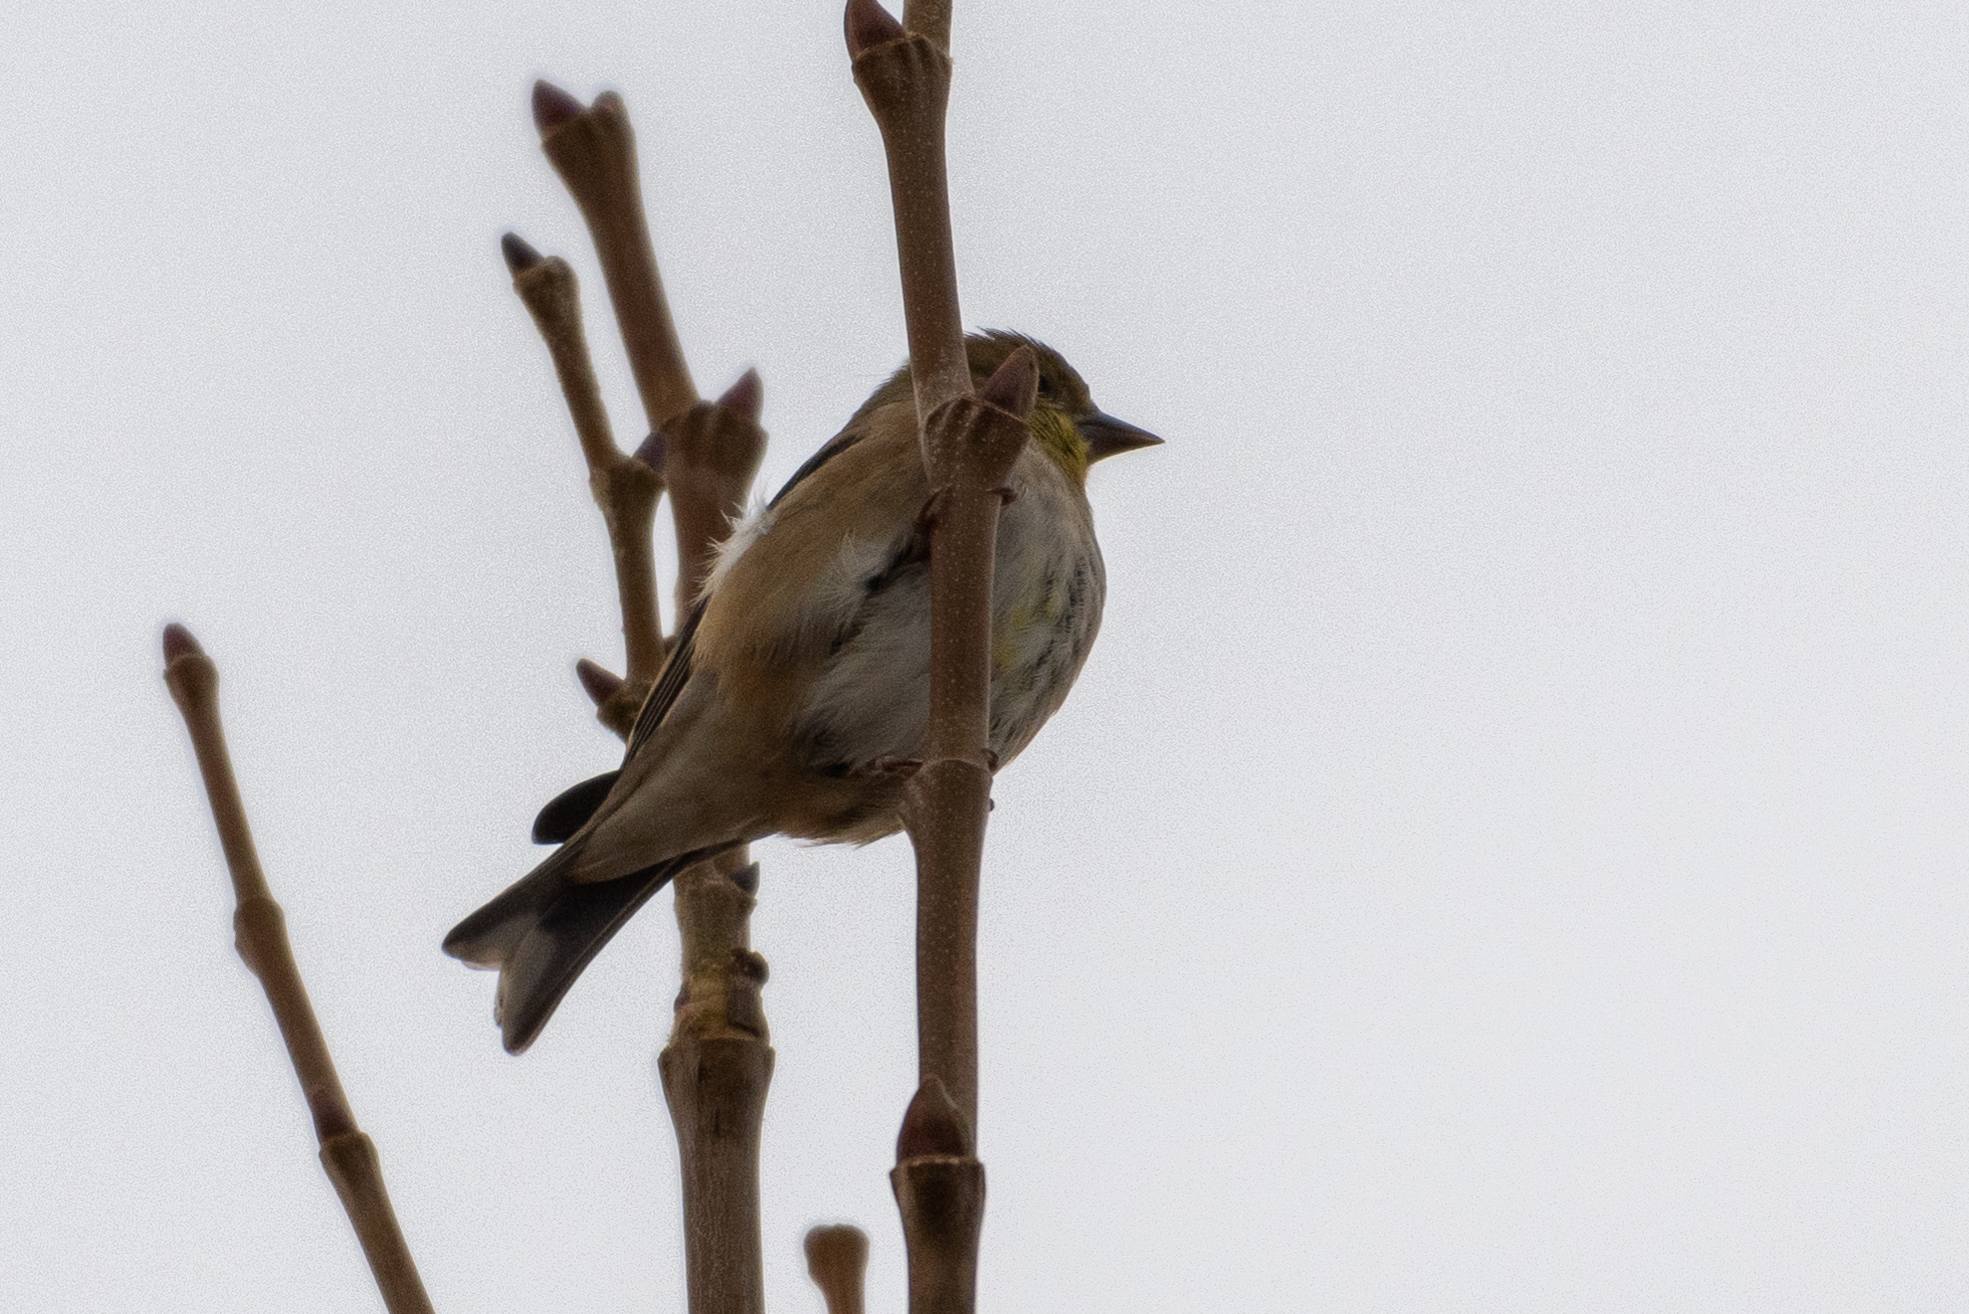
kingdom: Animalia
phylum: Chordata
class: Aves
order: Passeriformes
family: Fringillidae
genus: Spinus
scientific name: Spinus tristis
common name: American goldfinch
